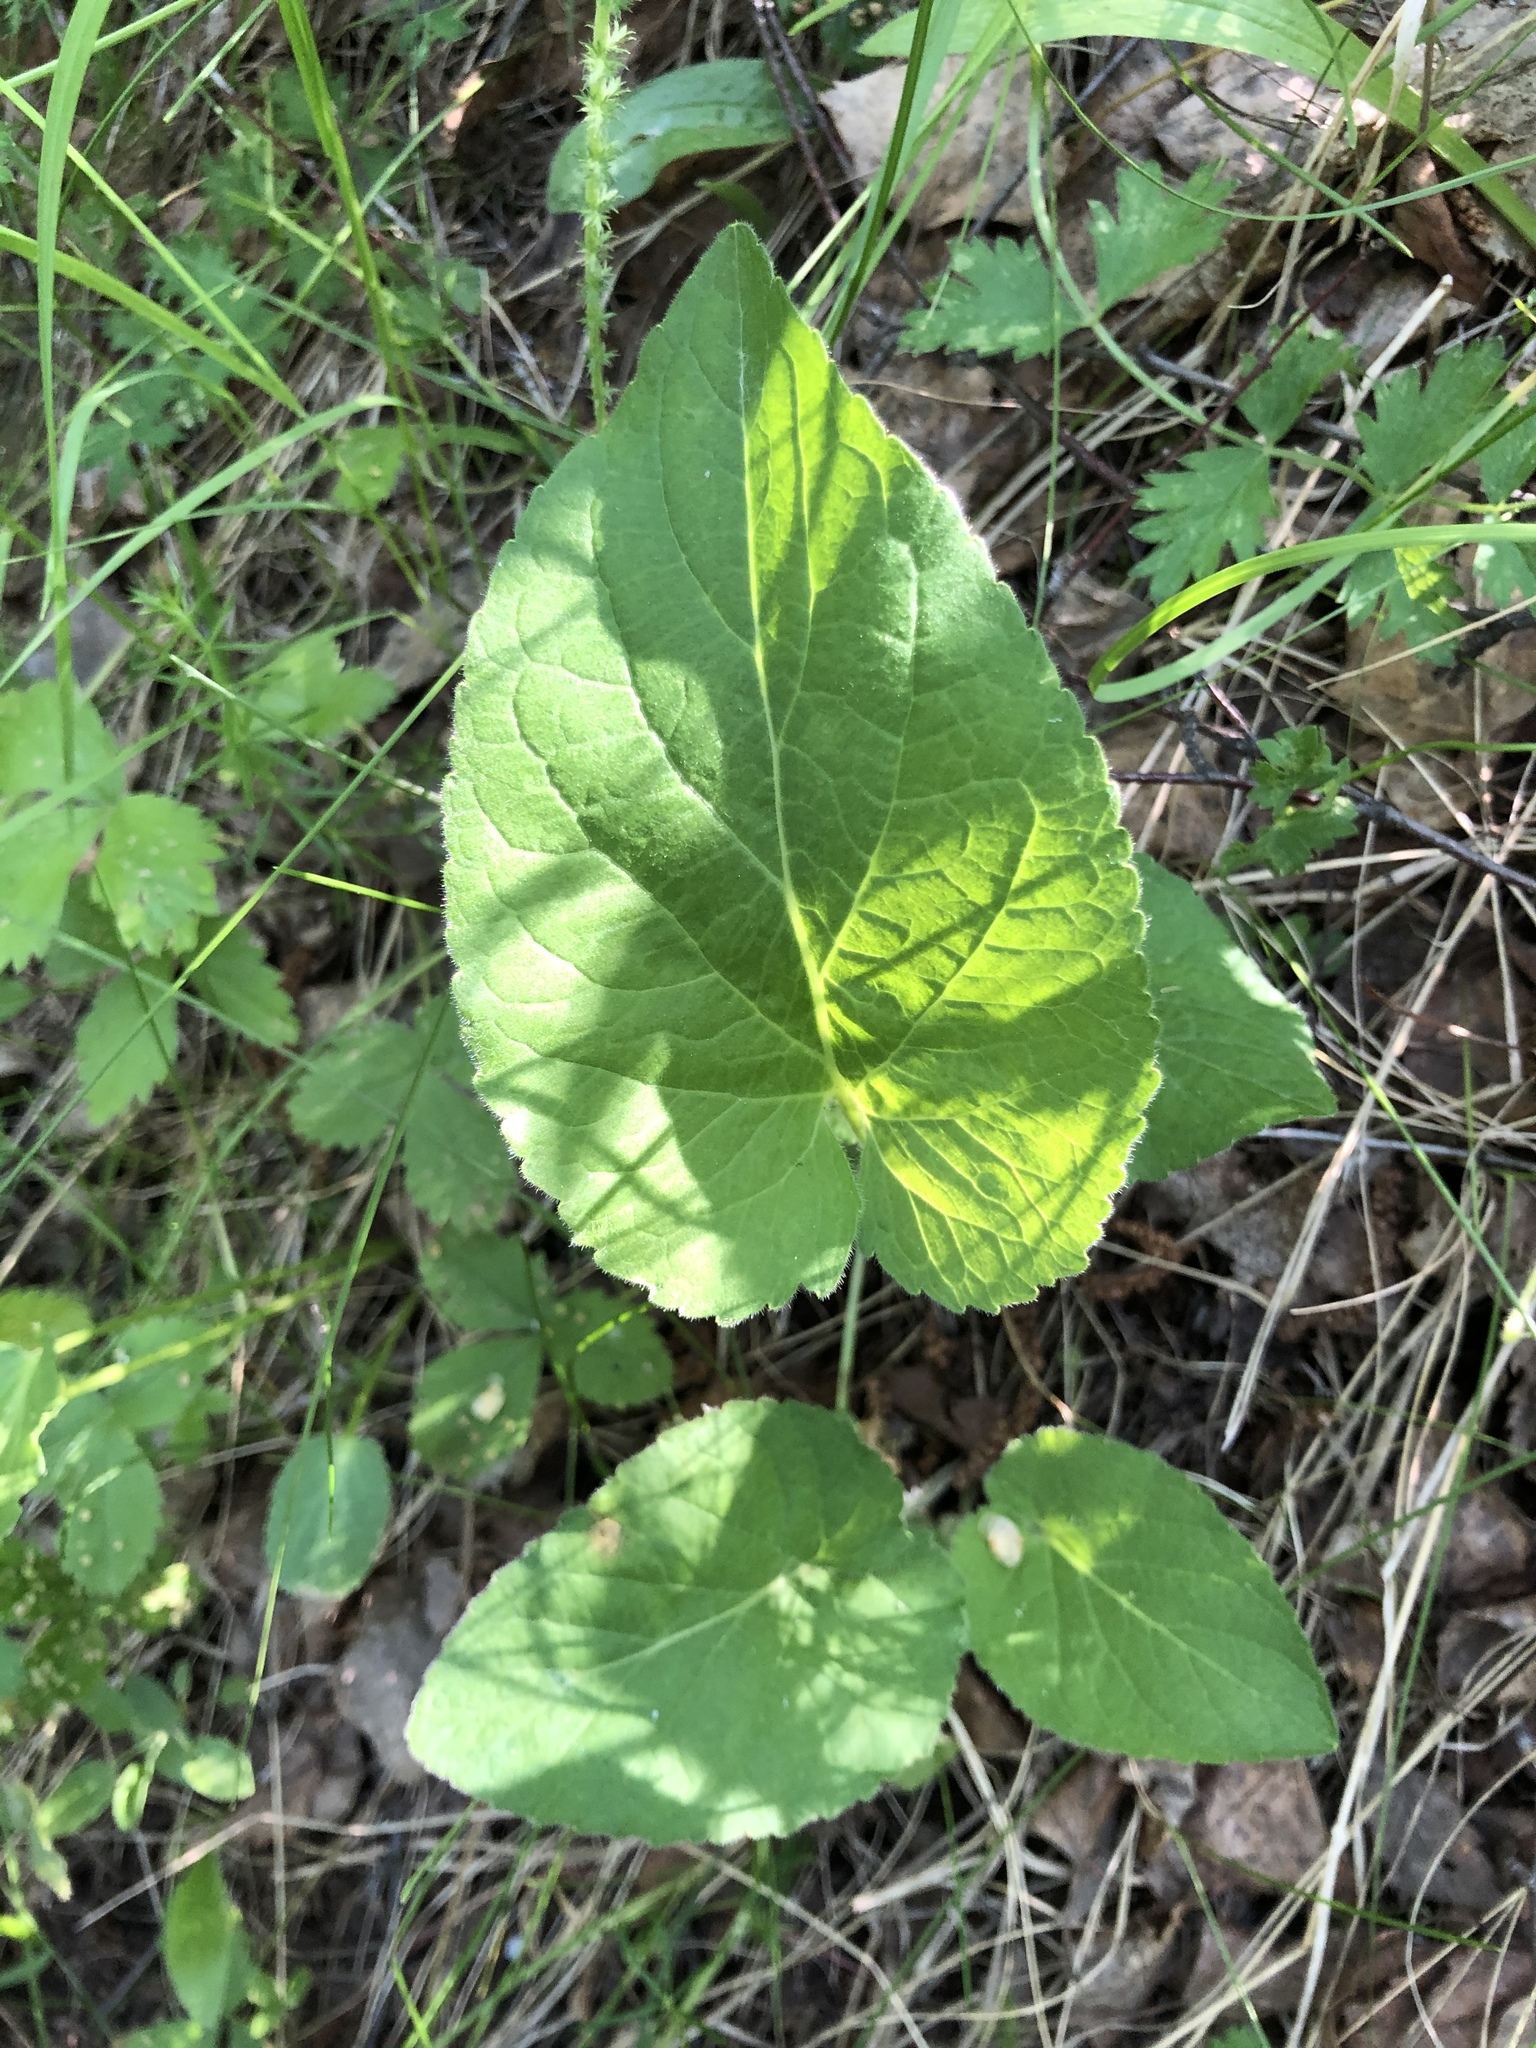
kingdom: Plantae
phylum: Tracheophyta
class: Magnoliopsida
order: Malpighiales
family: Violaceae
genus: Viola
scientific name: Viola hirta
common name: Hairy violet
